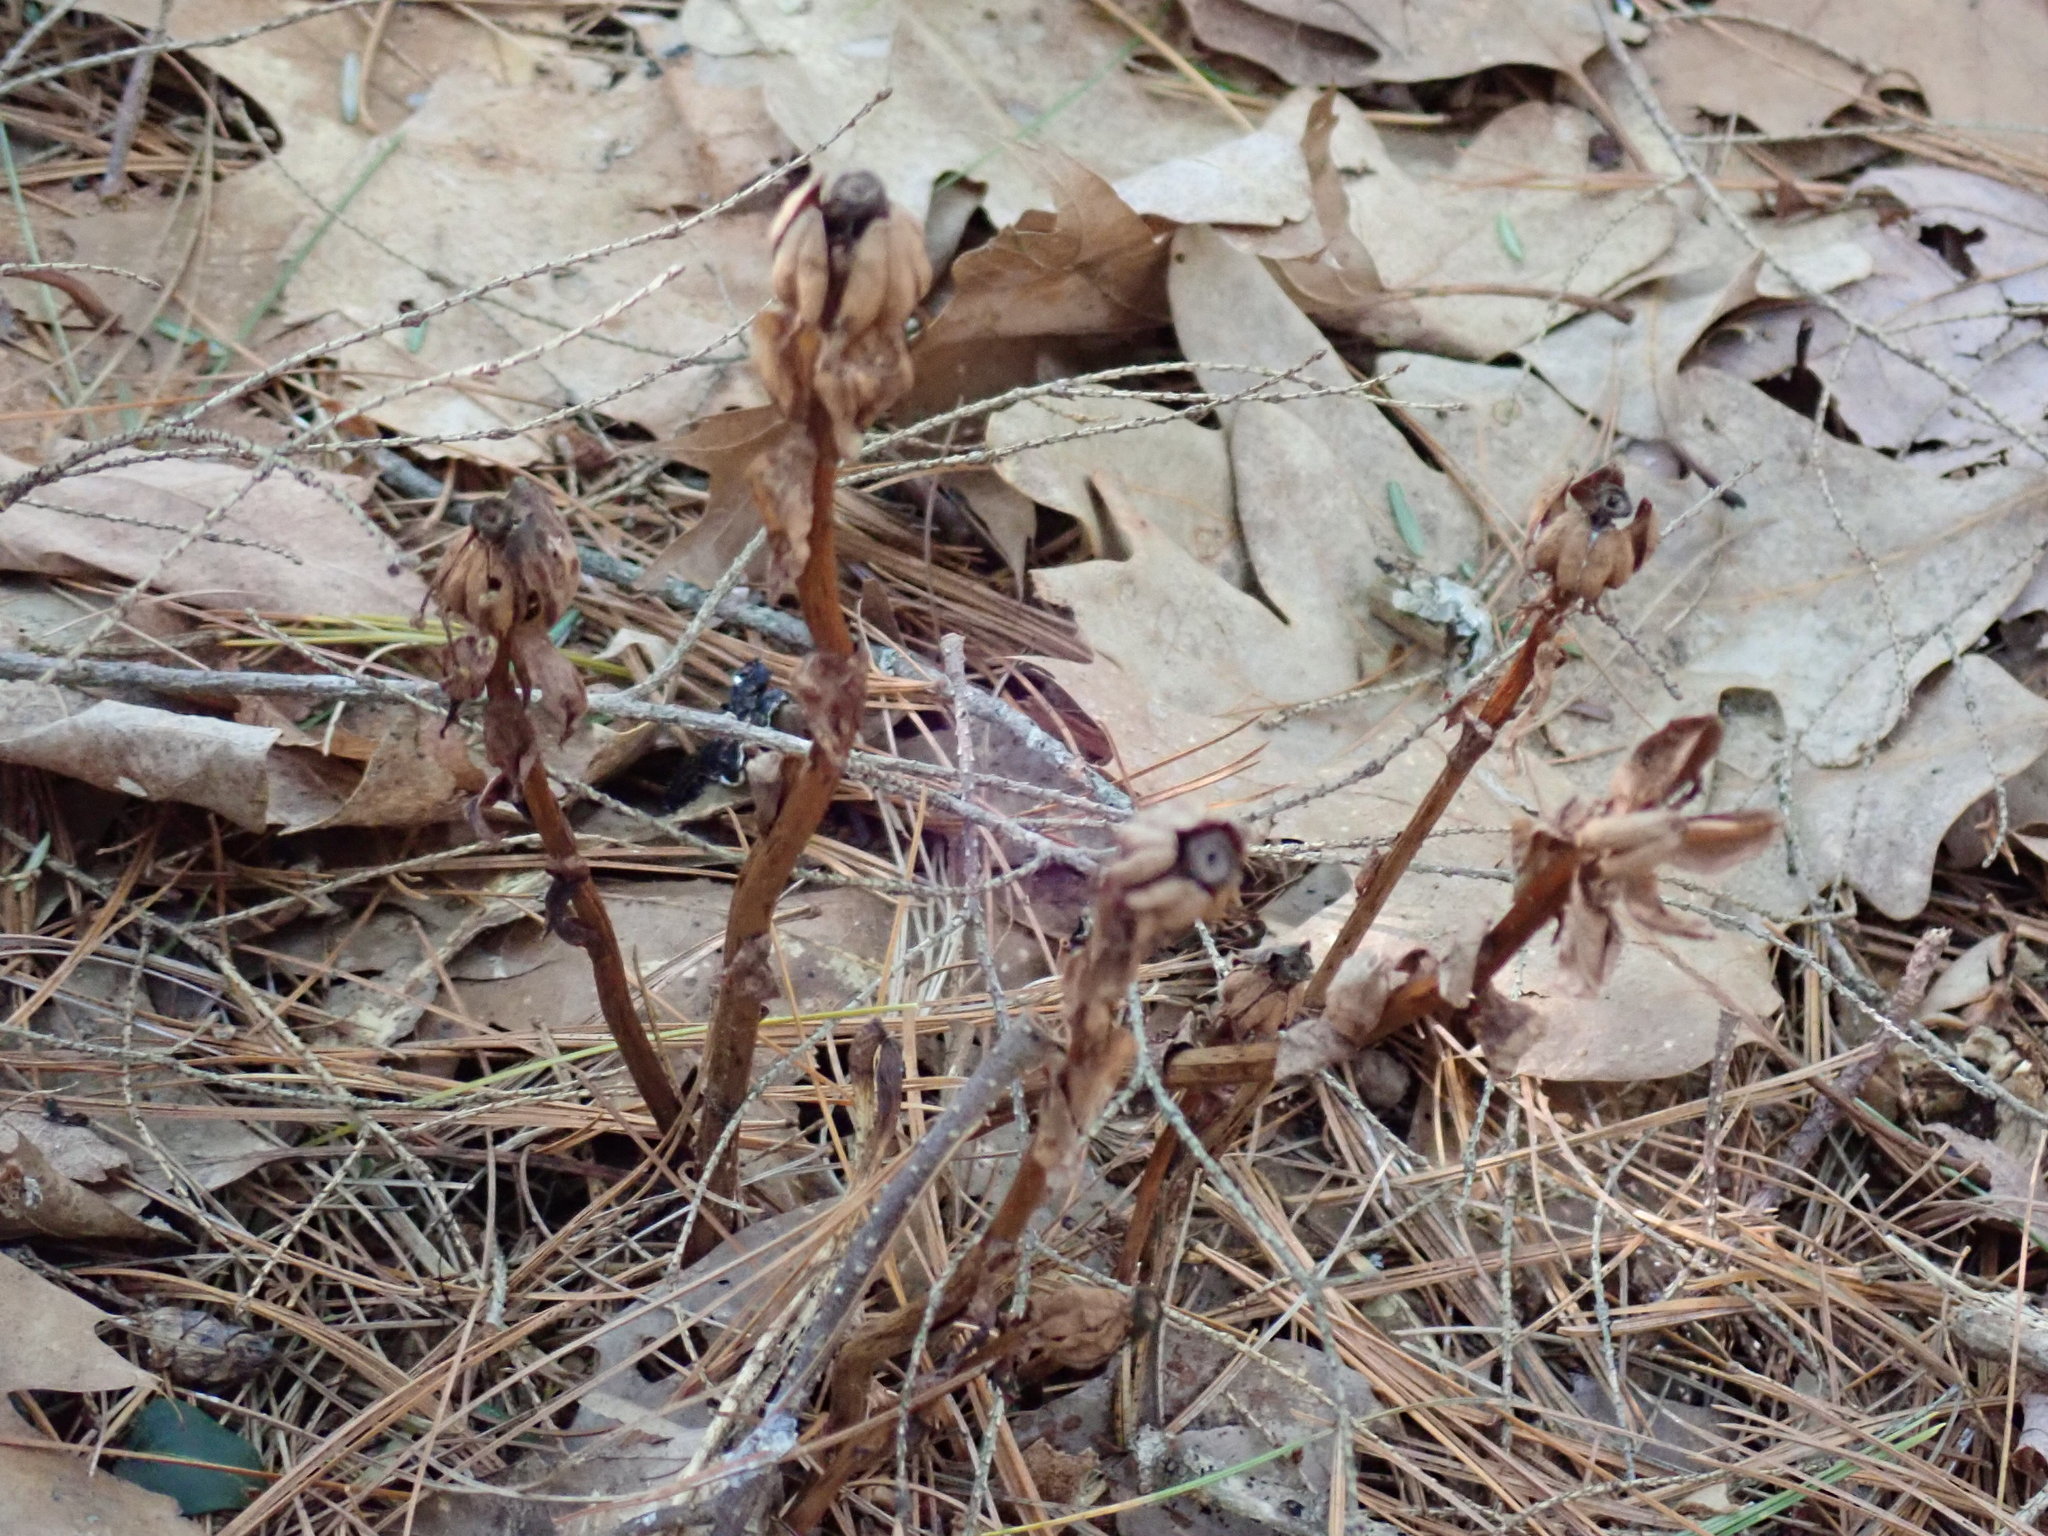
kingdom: Plantae
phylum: Tracheophyta
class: Magnoliopsida
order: Ericales
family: Ericaceae
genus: Monotropa
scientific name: Monotropa uniflora
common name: Convulsion root
